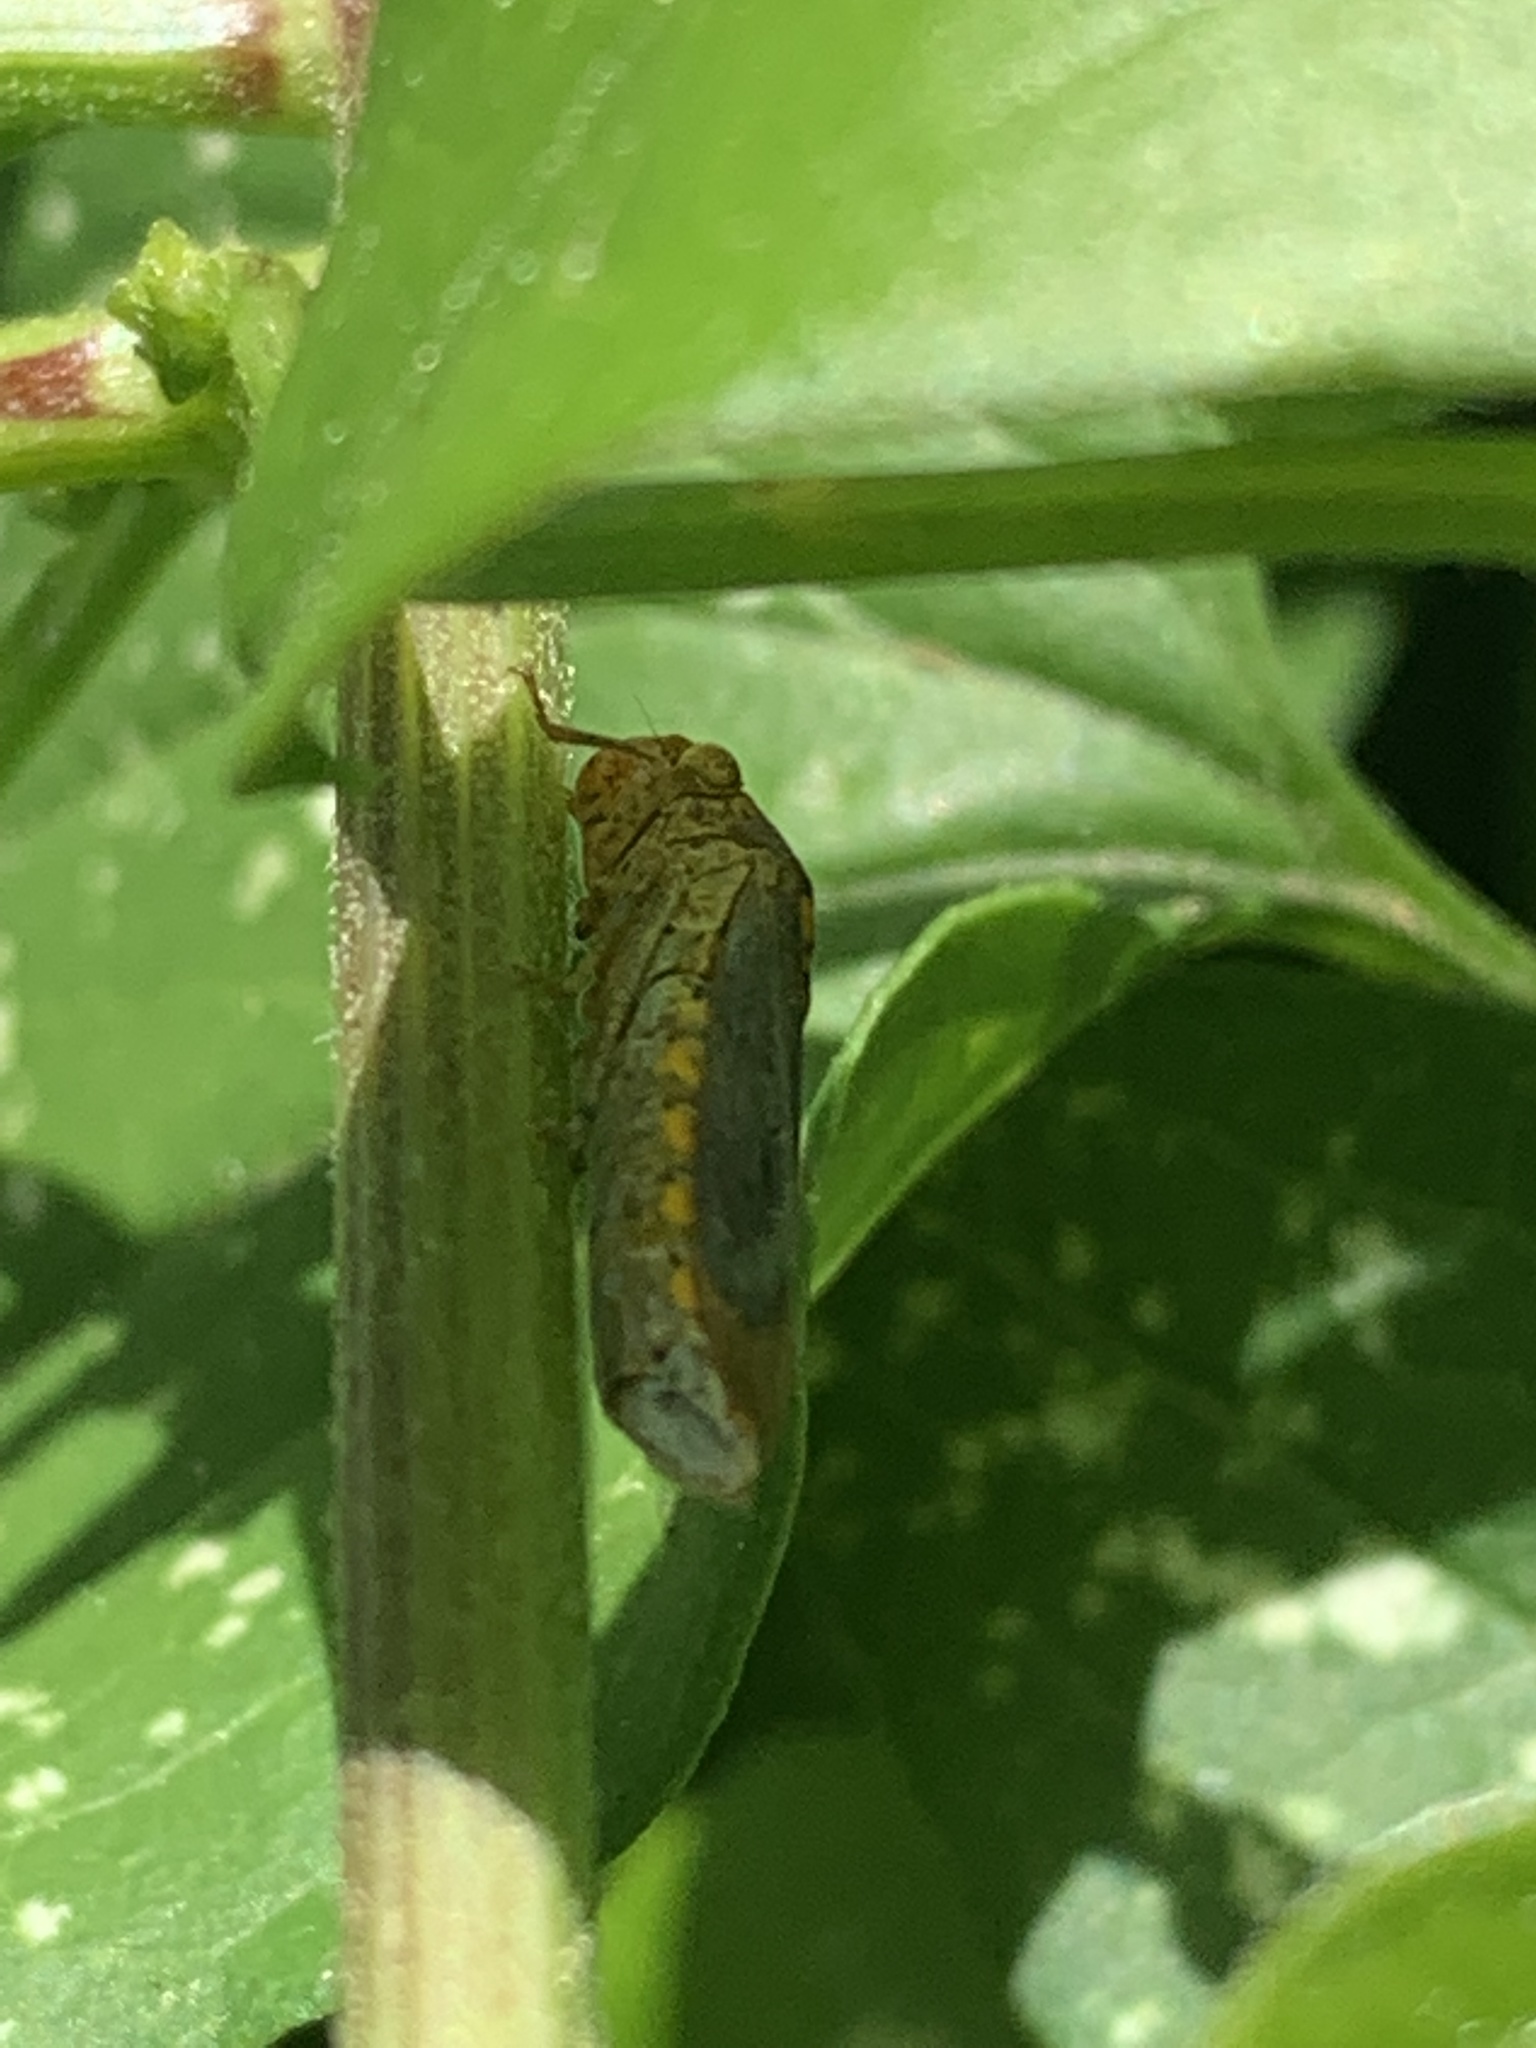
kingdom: Animalia
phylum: Arthropoda
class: Insecta
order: Hemiptera
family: Cicadellidae
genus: Oncometopia
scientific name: Oncometopia orbona
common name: Broad-headed sharpshooter
